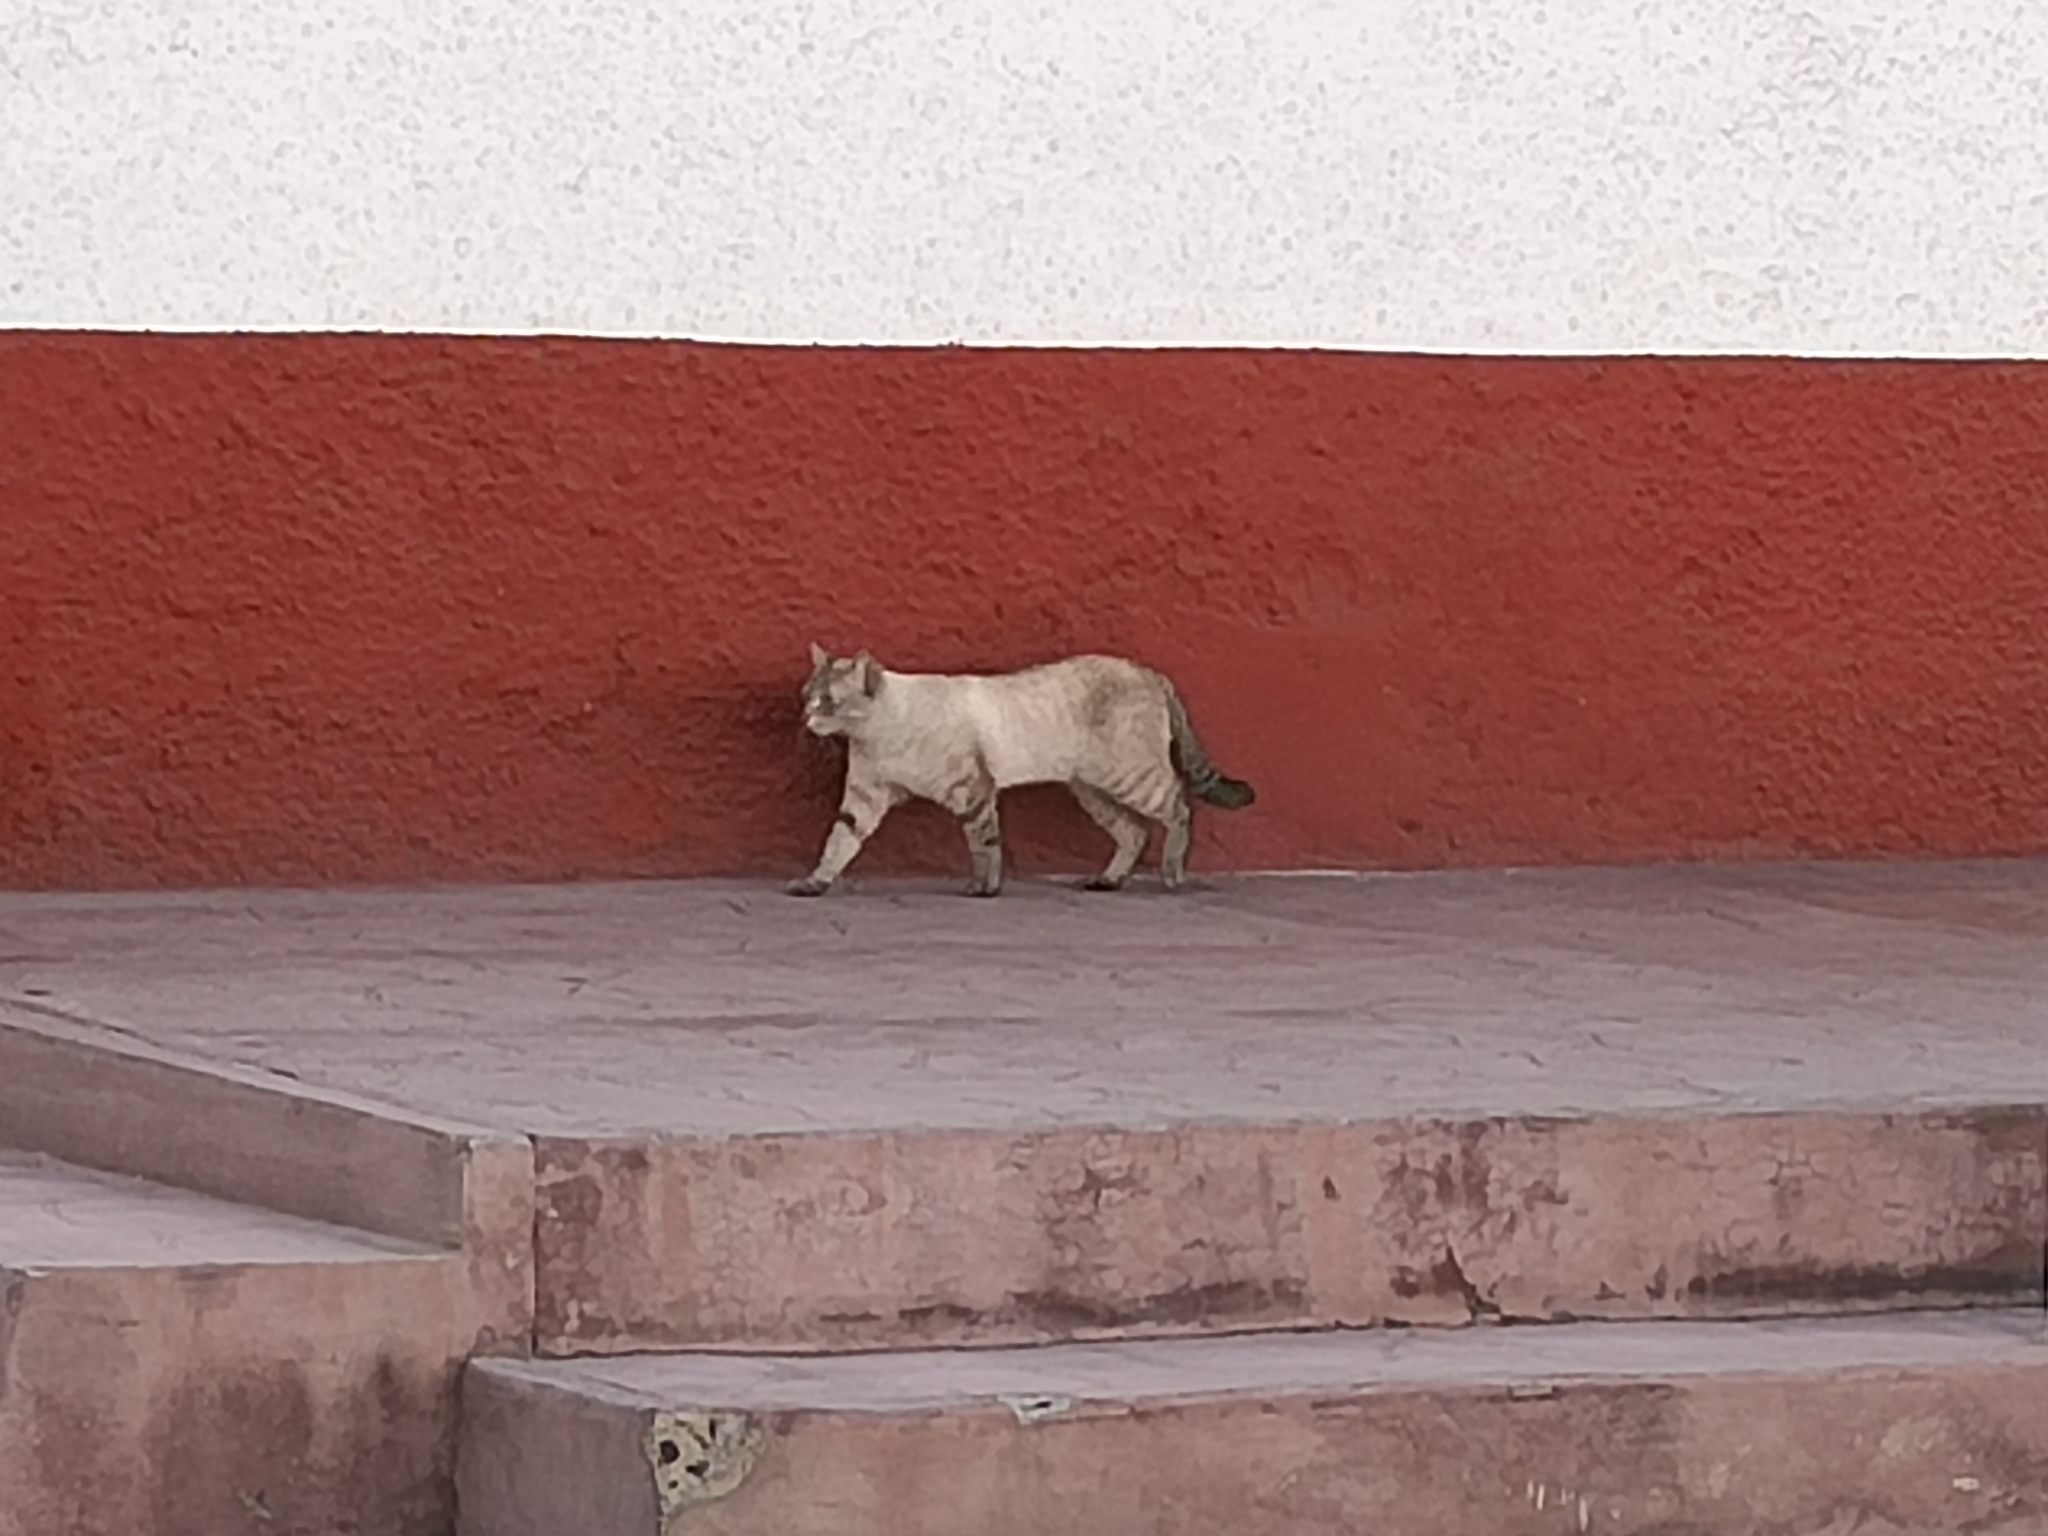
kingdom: Animalia
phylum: Chordata
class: Mammalia
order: Carnivora
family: Felidae
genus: Felis
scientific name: Felis catus
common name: Domestic cat
